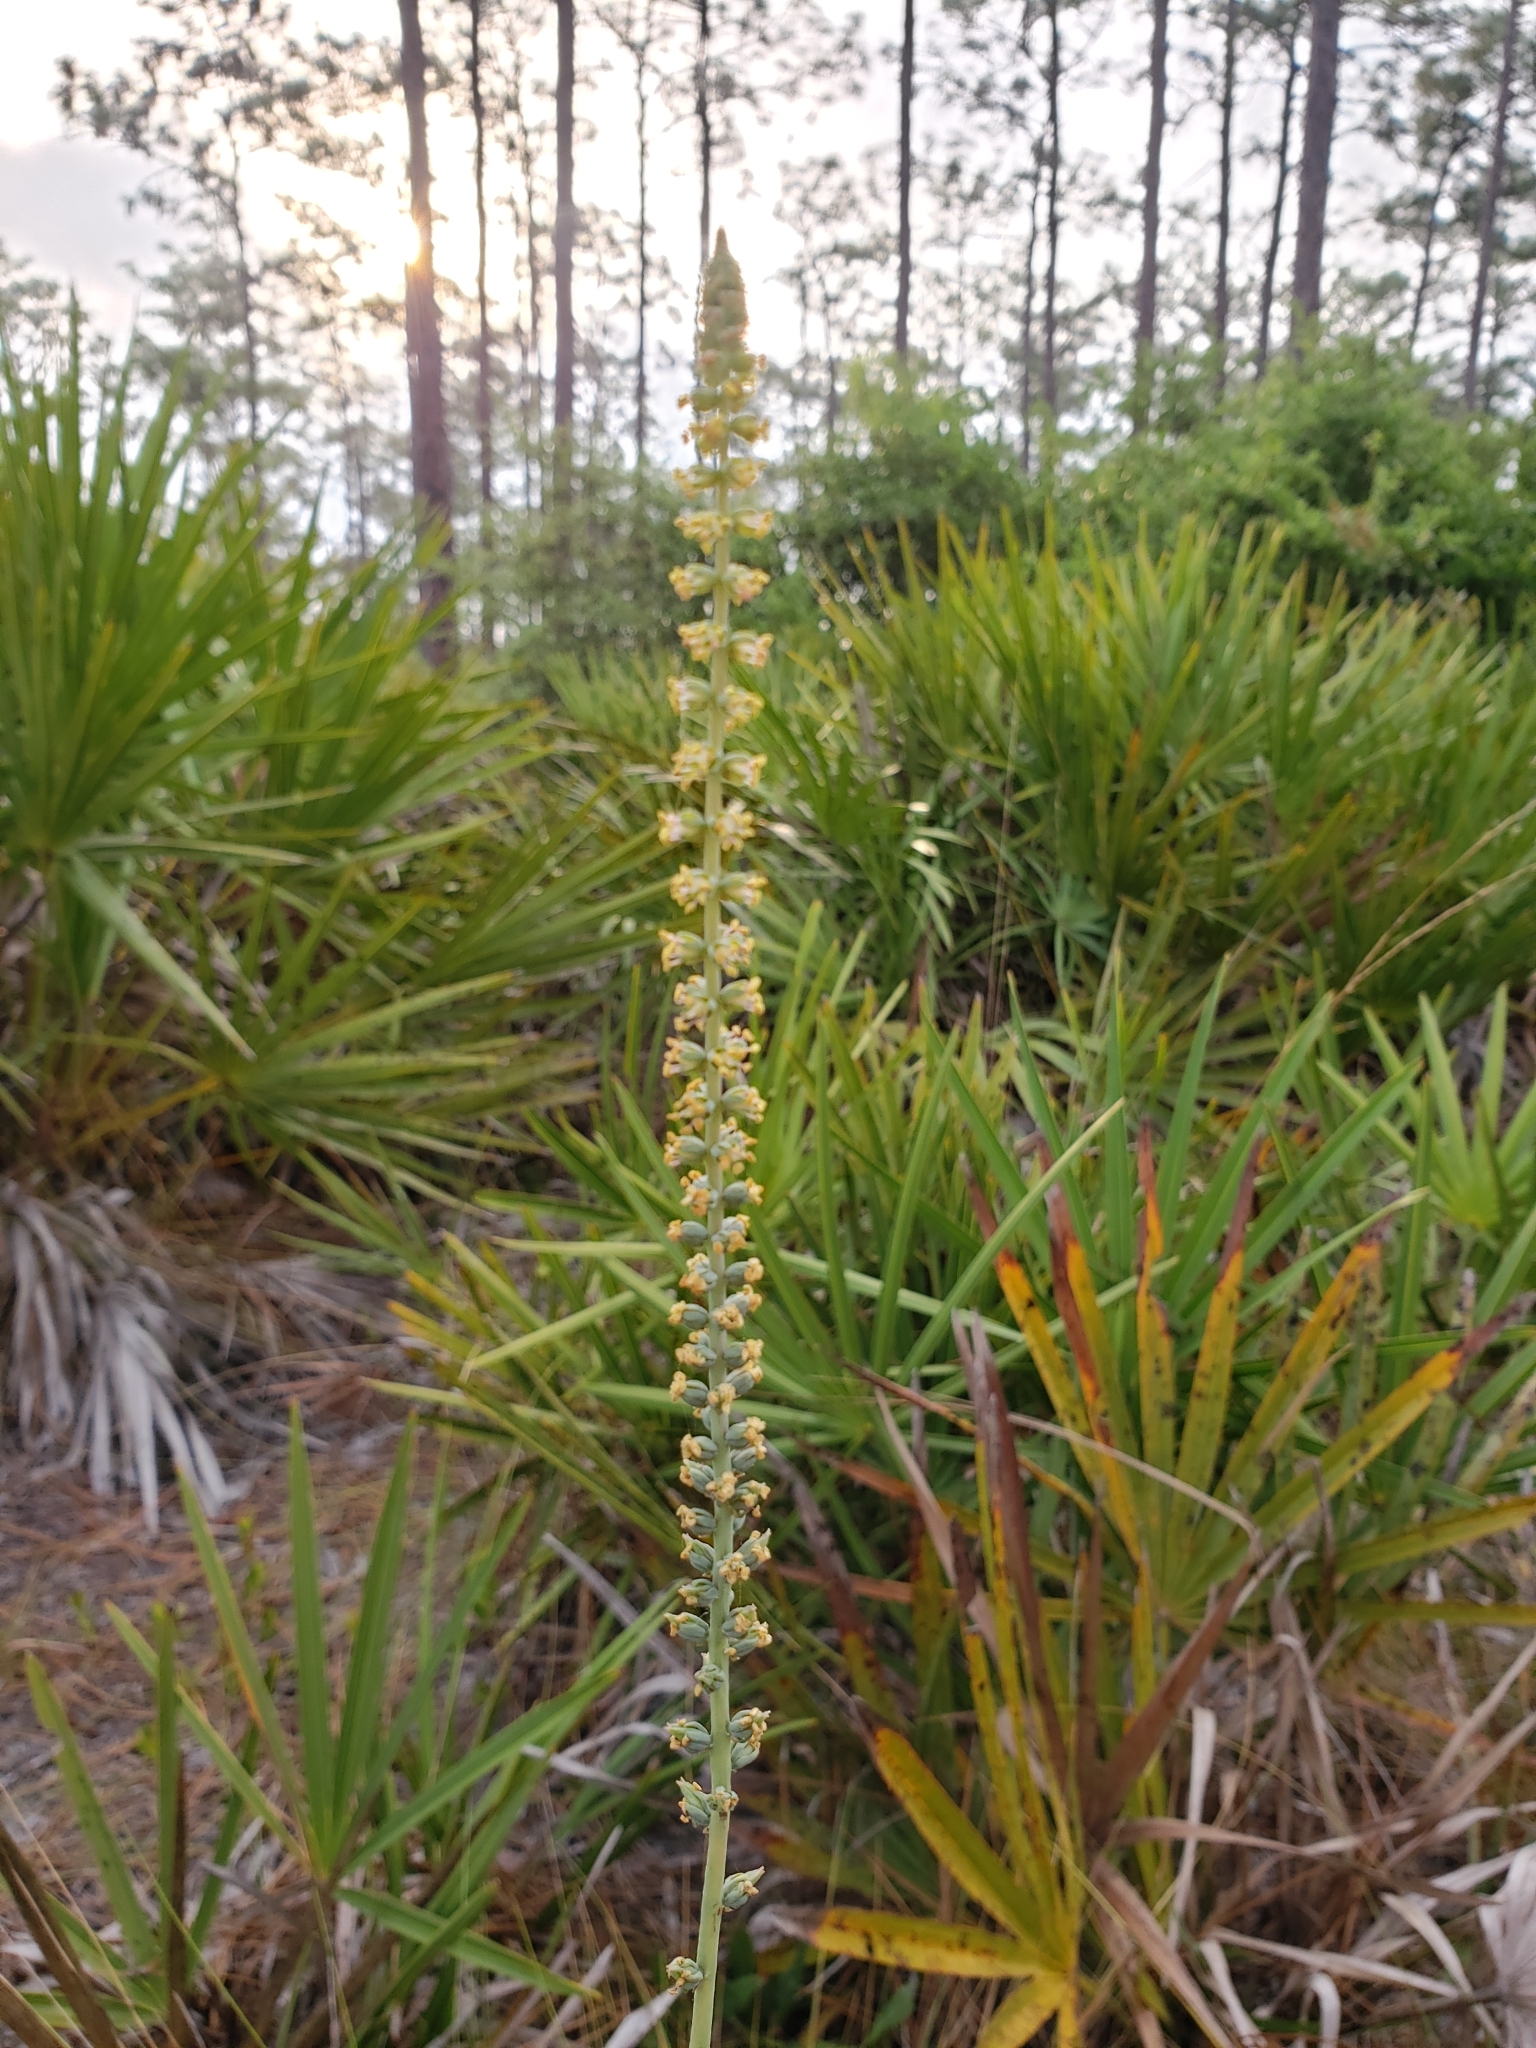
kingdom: Plantae
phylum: Tracheophyta
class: Liliopsida
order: Liliales
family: Melanthiaceae
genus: Schoenocaulon
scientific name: Schoenocaulon dubium
